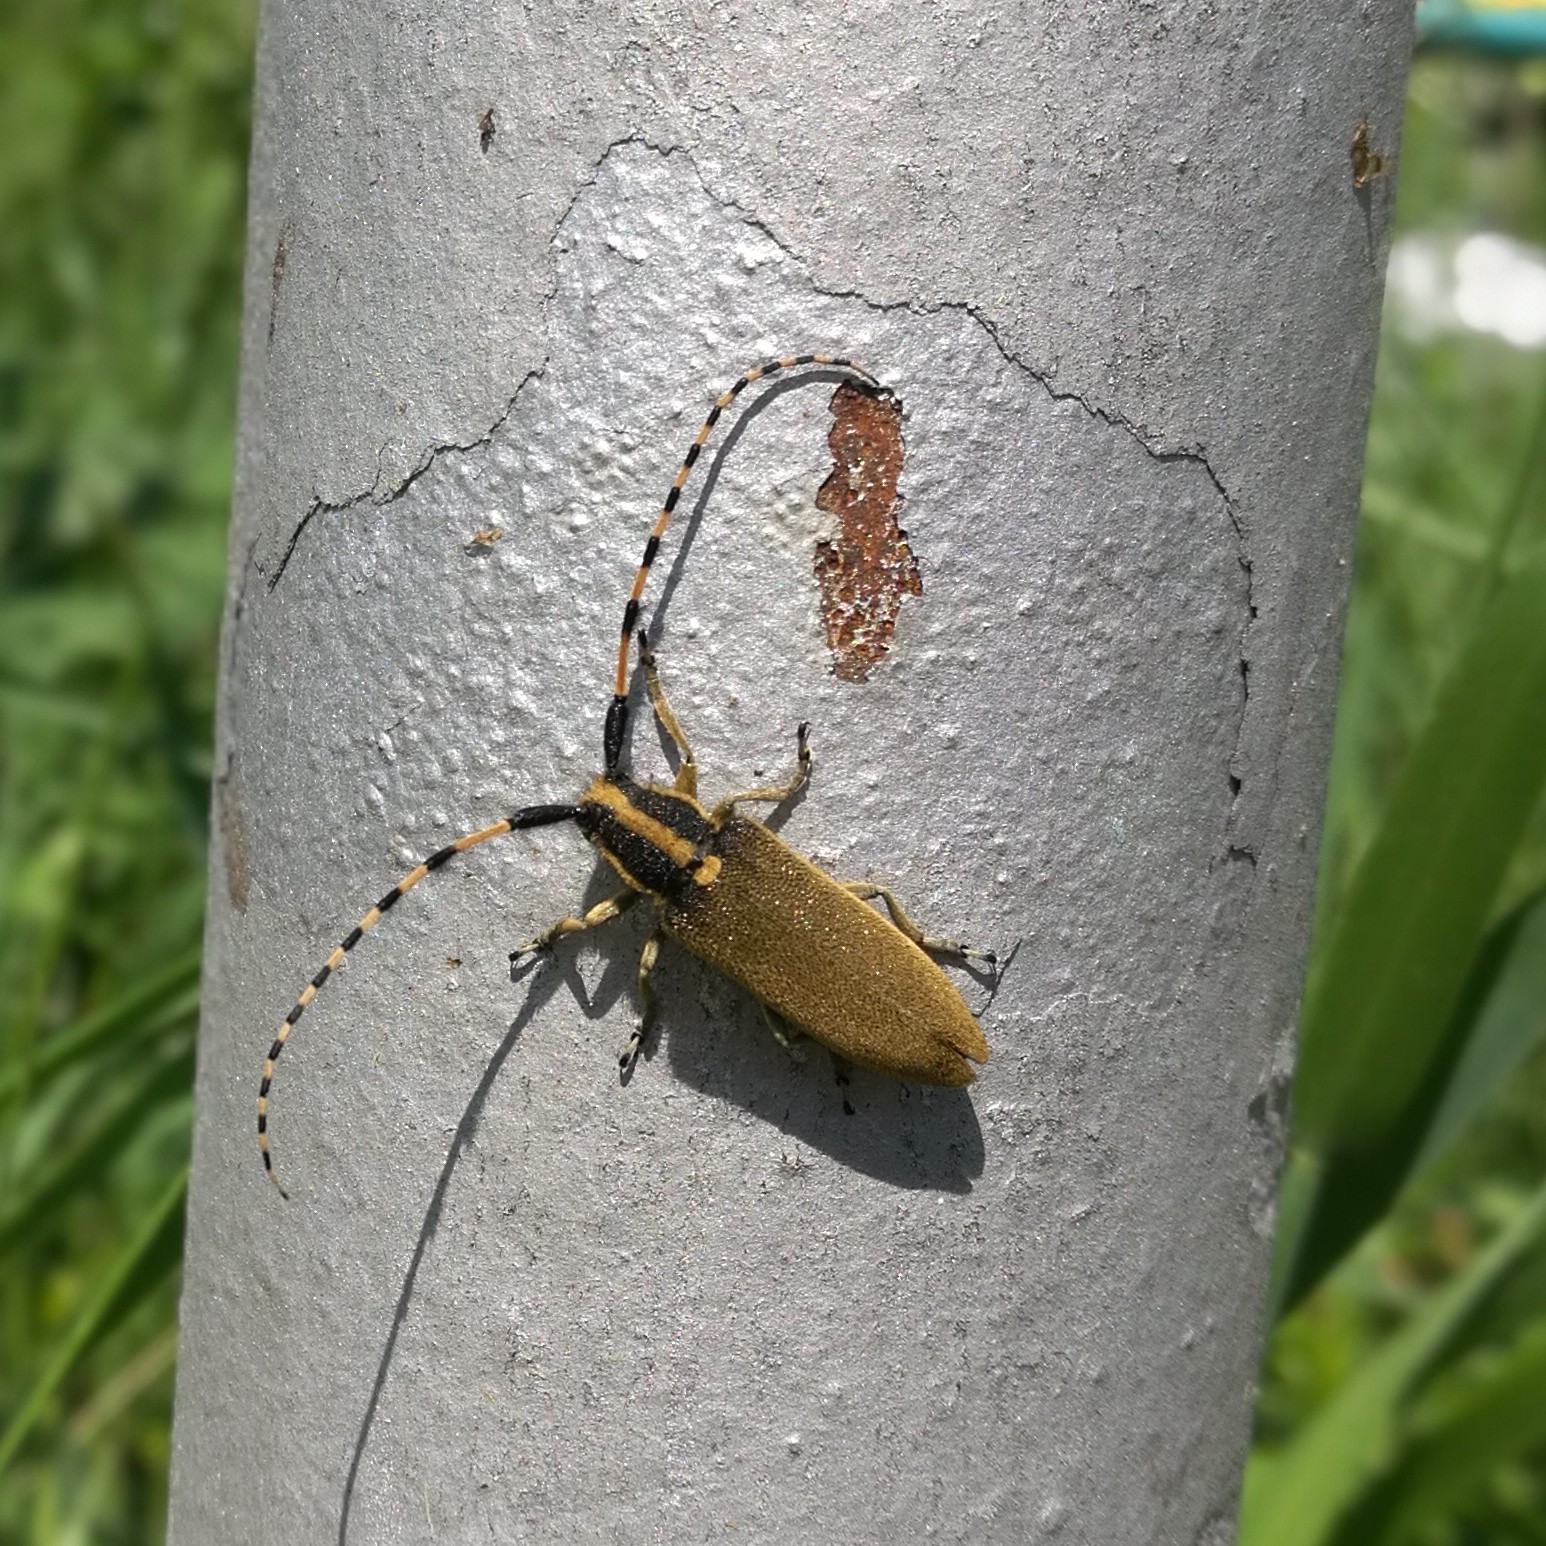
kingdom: Animalia
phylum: Arthropoda
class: Insecta
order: Coleoptera
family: Cerambycidae
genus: Agapanthia
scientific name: Agapanthia kirbyi
